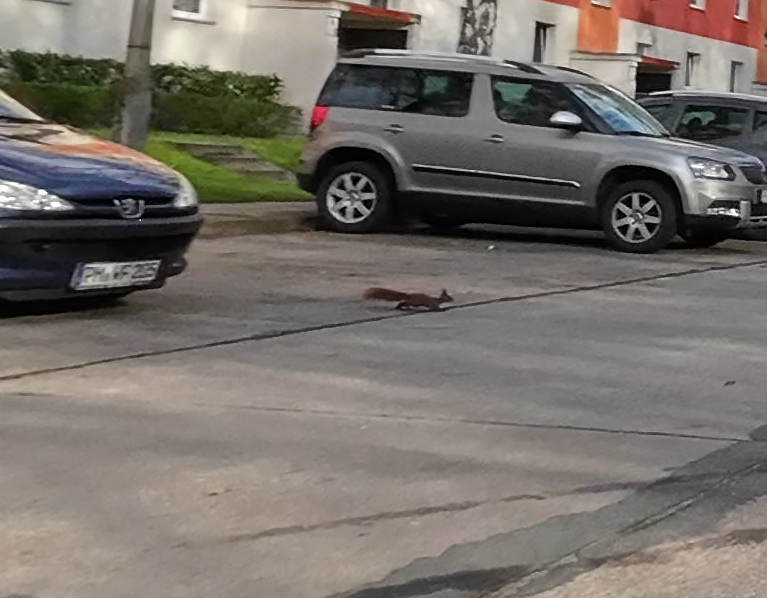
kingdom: Animalia
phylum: Chordata
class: Mammalia
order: Rodentia
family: Sciuridae
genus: Sciurus
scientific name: Sciurus vulgaris
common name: Eurasian red squirrel
